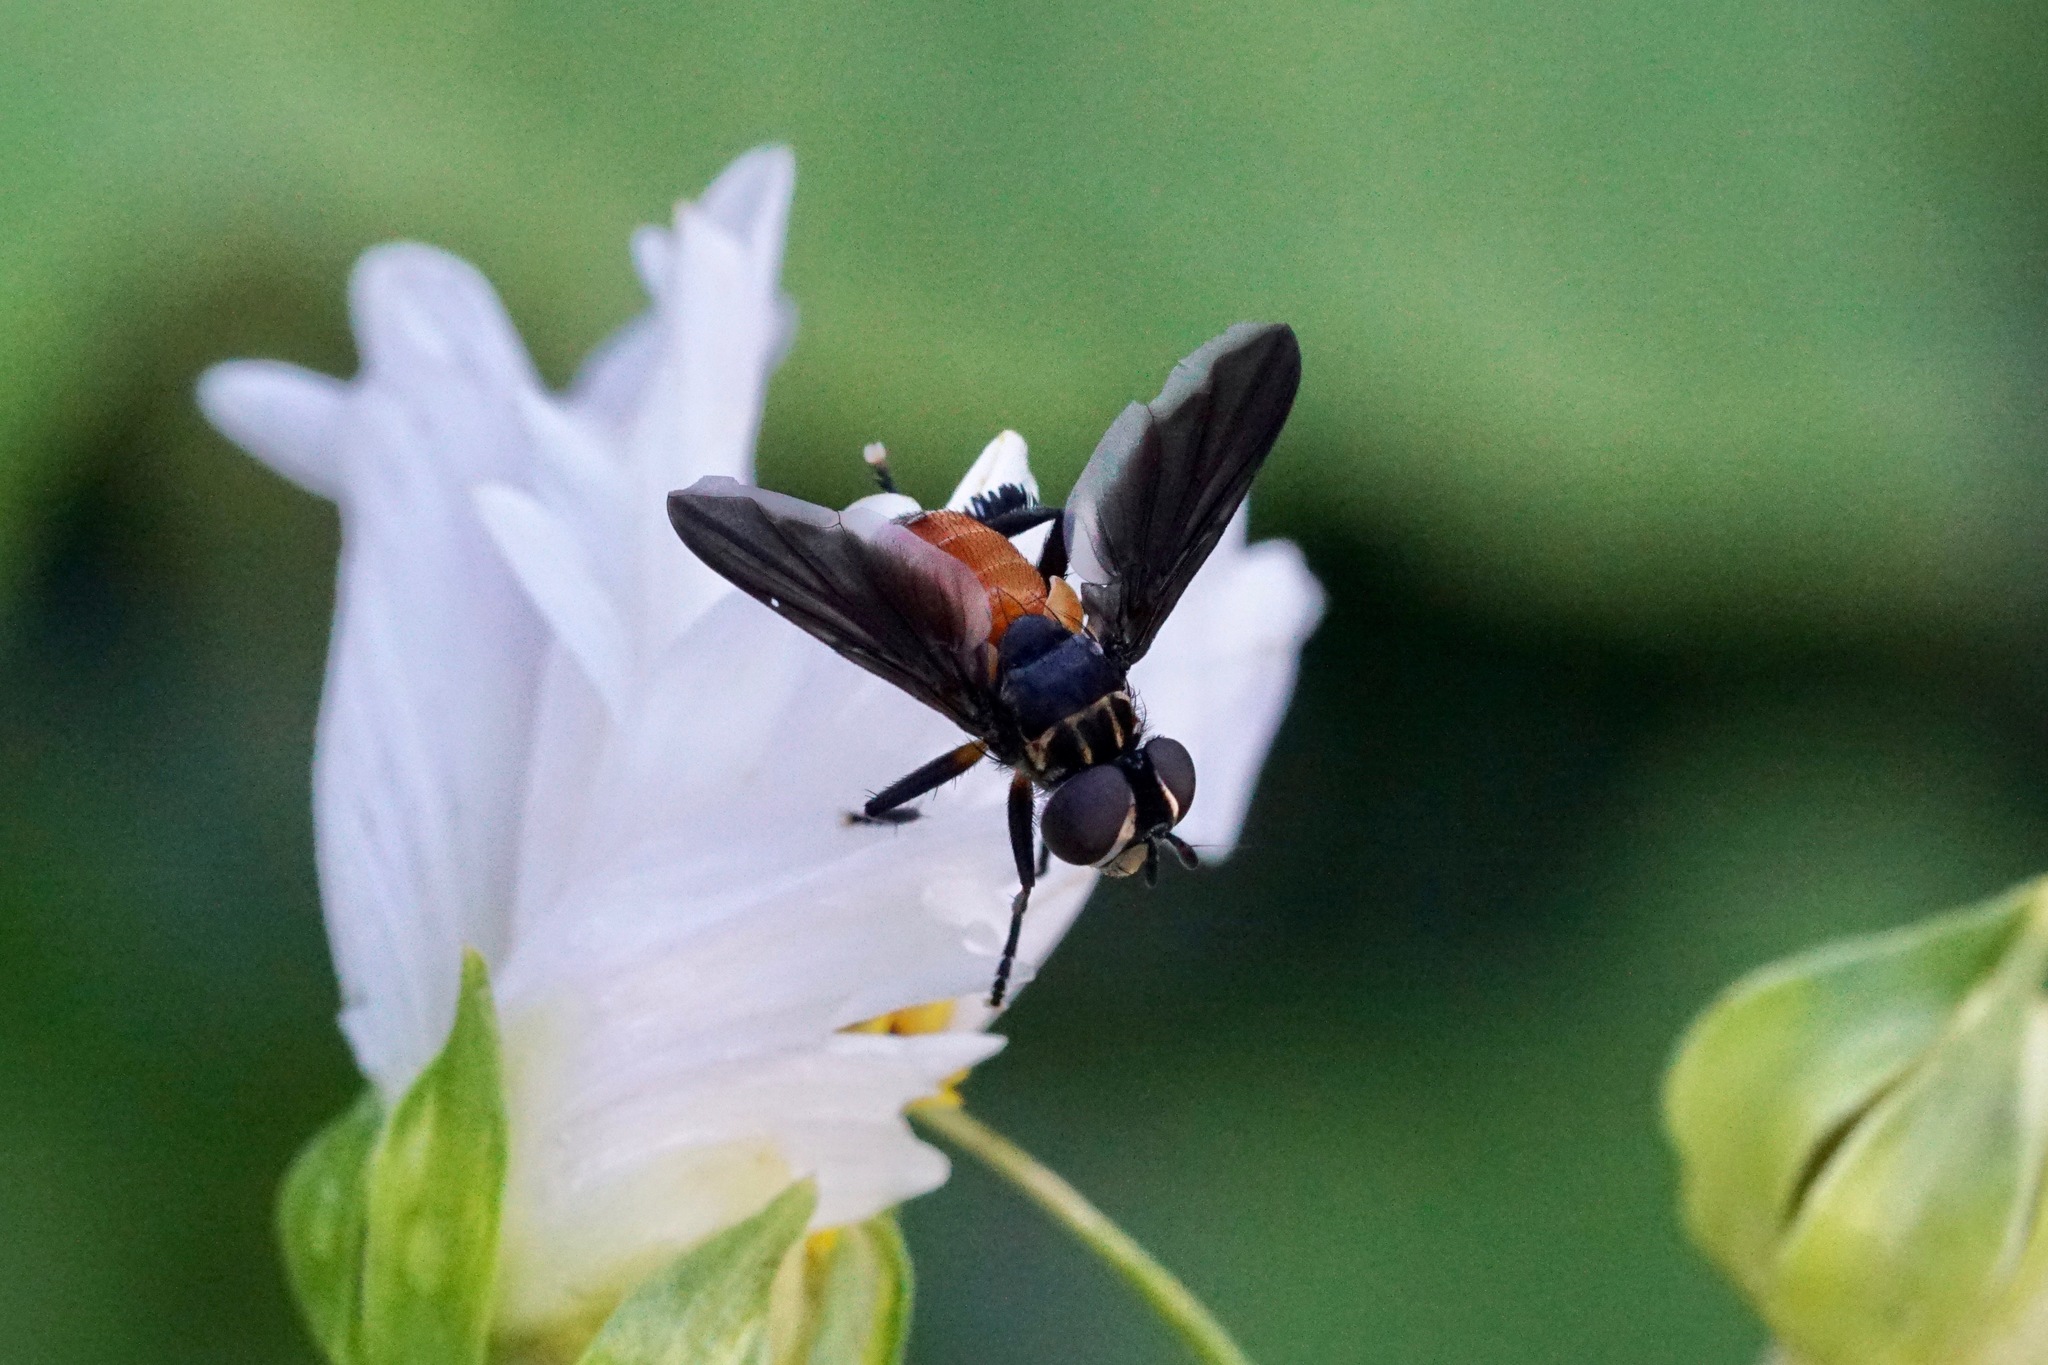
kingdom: Animalia
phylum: Arthropoda
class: Insecta
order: Diptera
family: Tachinidae
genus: Trichopoda
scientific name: Trichopoda pennipes
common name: Tachinid fly
